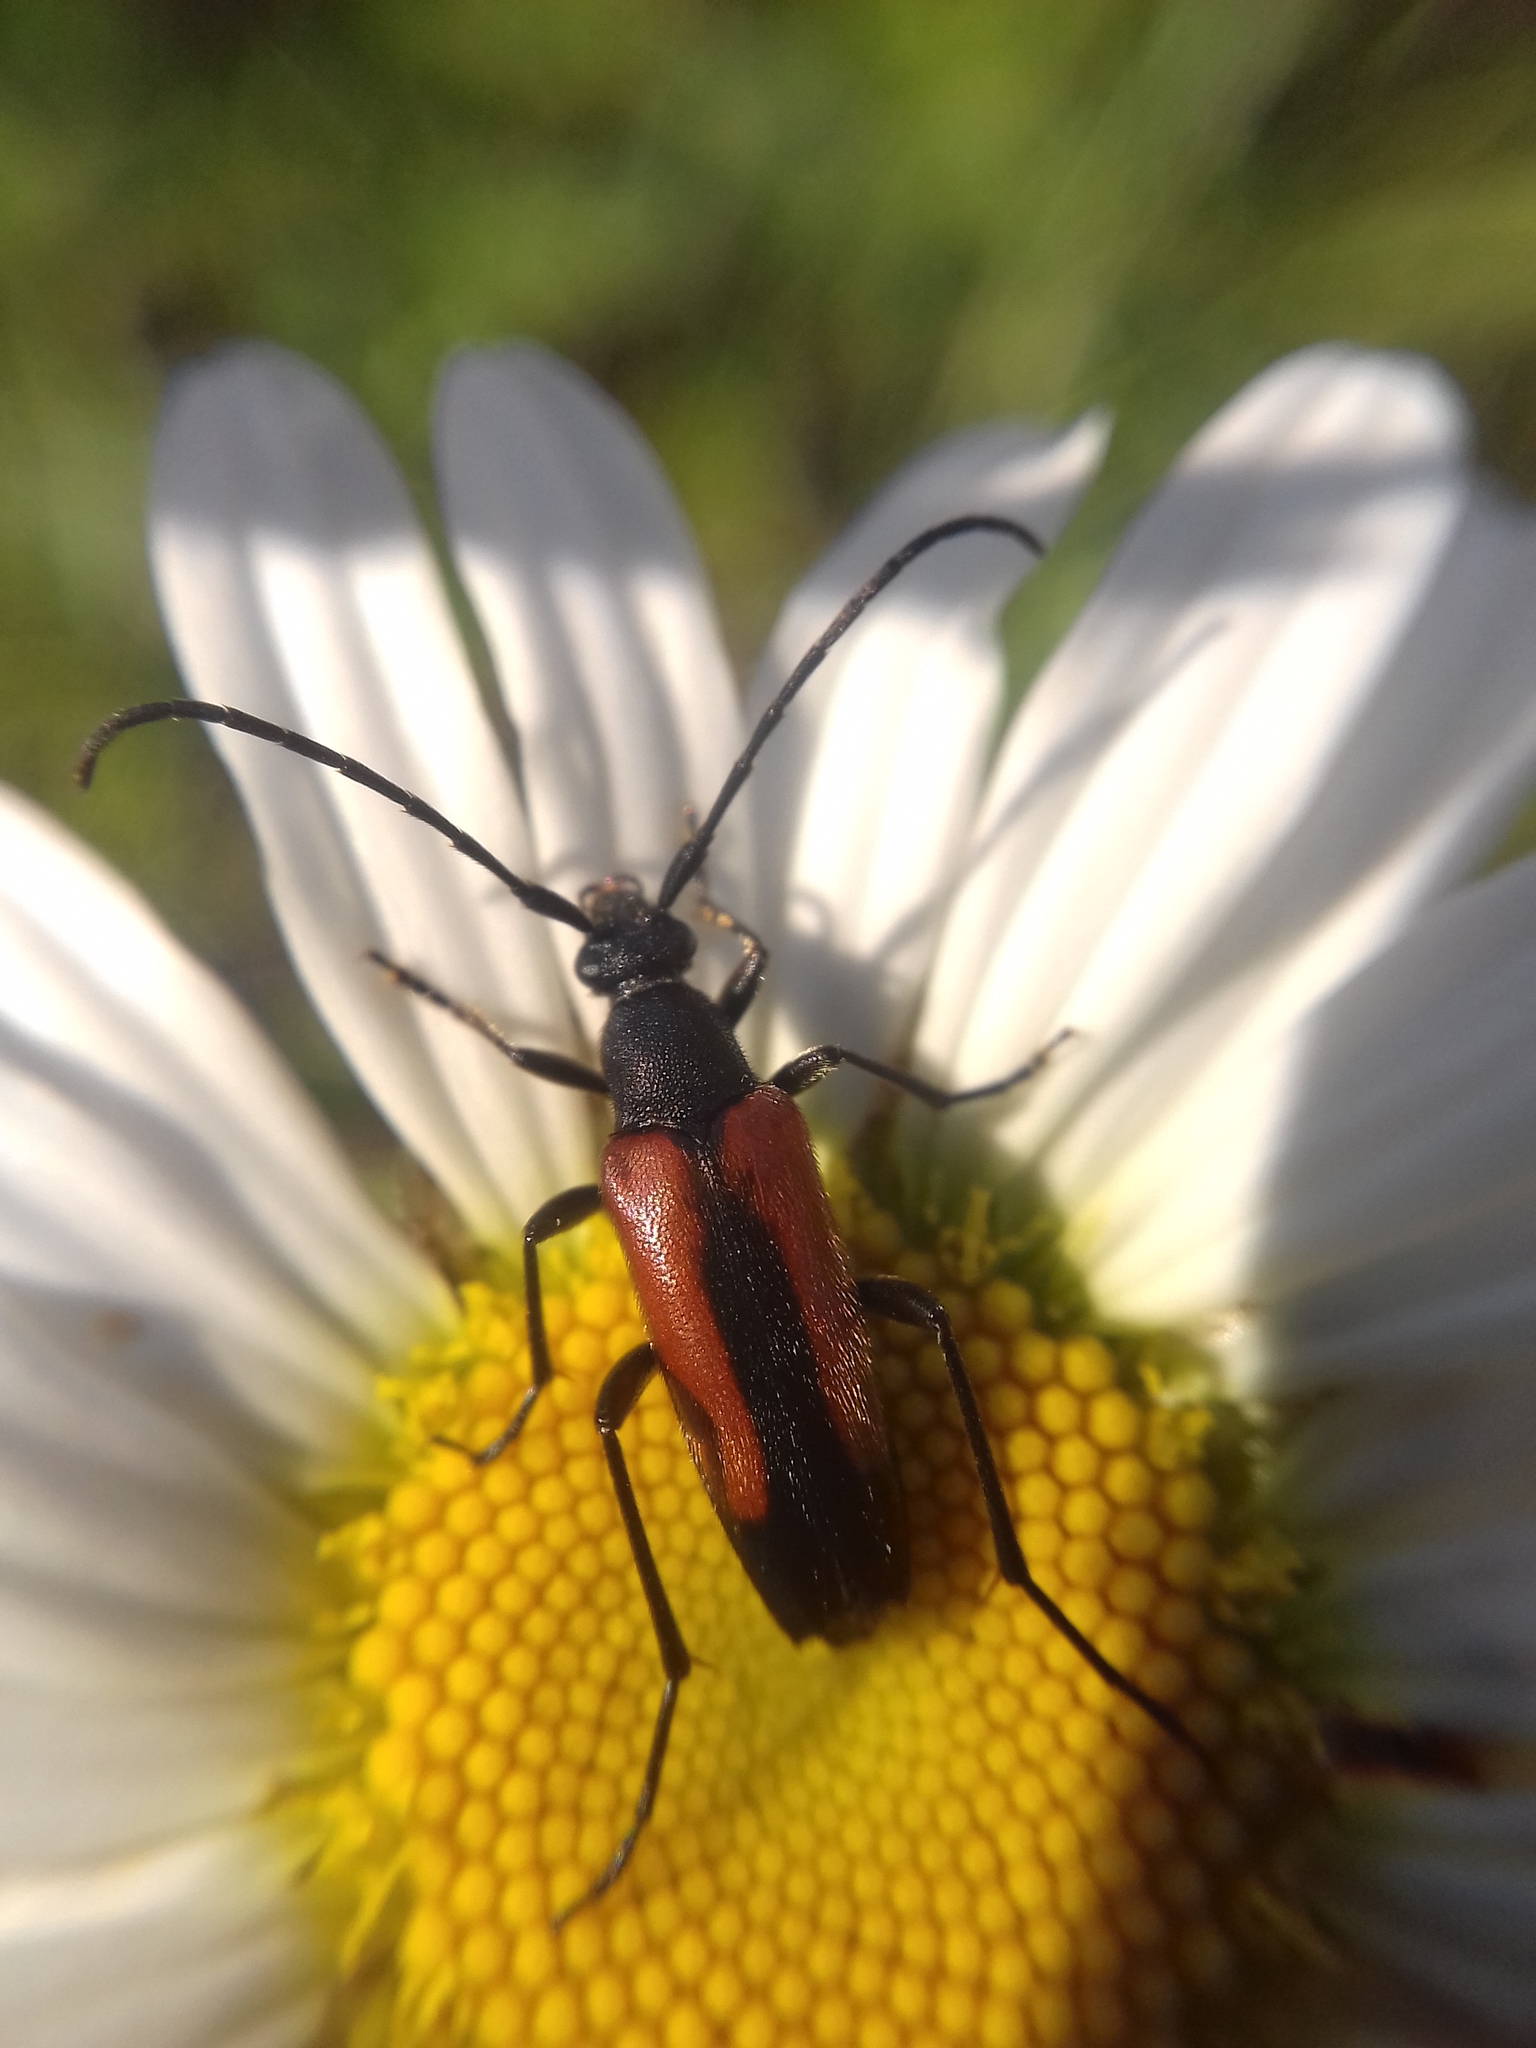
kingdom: Animalia
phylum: Arthropoda
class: Insecta
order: Coleoptera
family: Cerambycidae
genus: Stenurella
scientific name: Stenurella melanura
